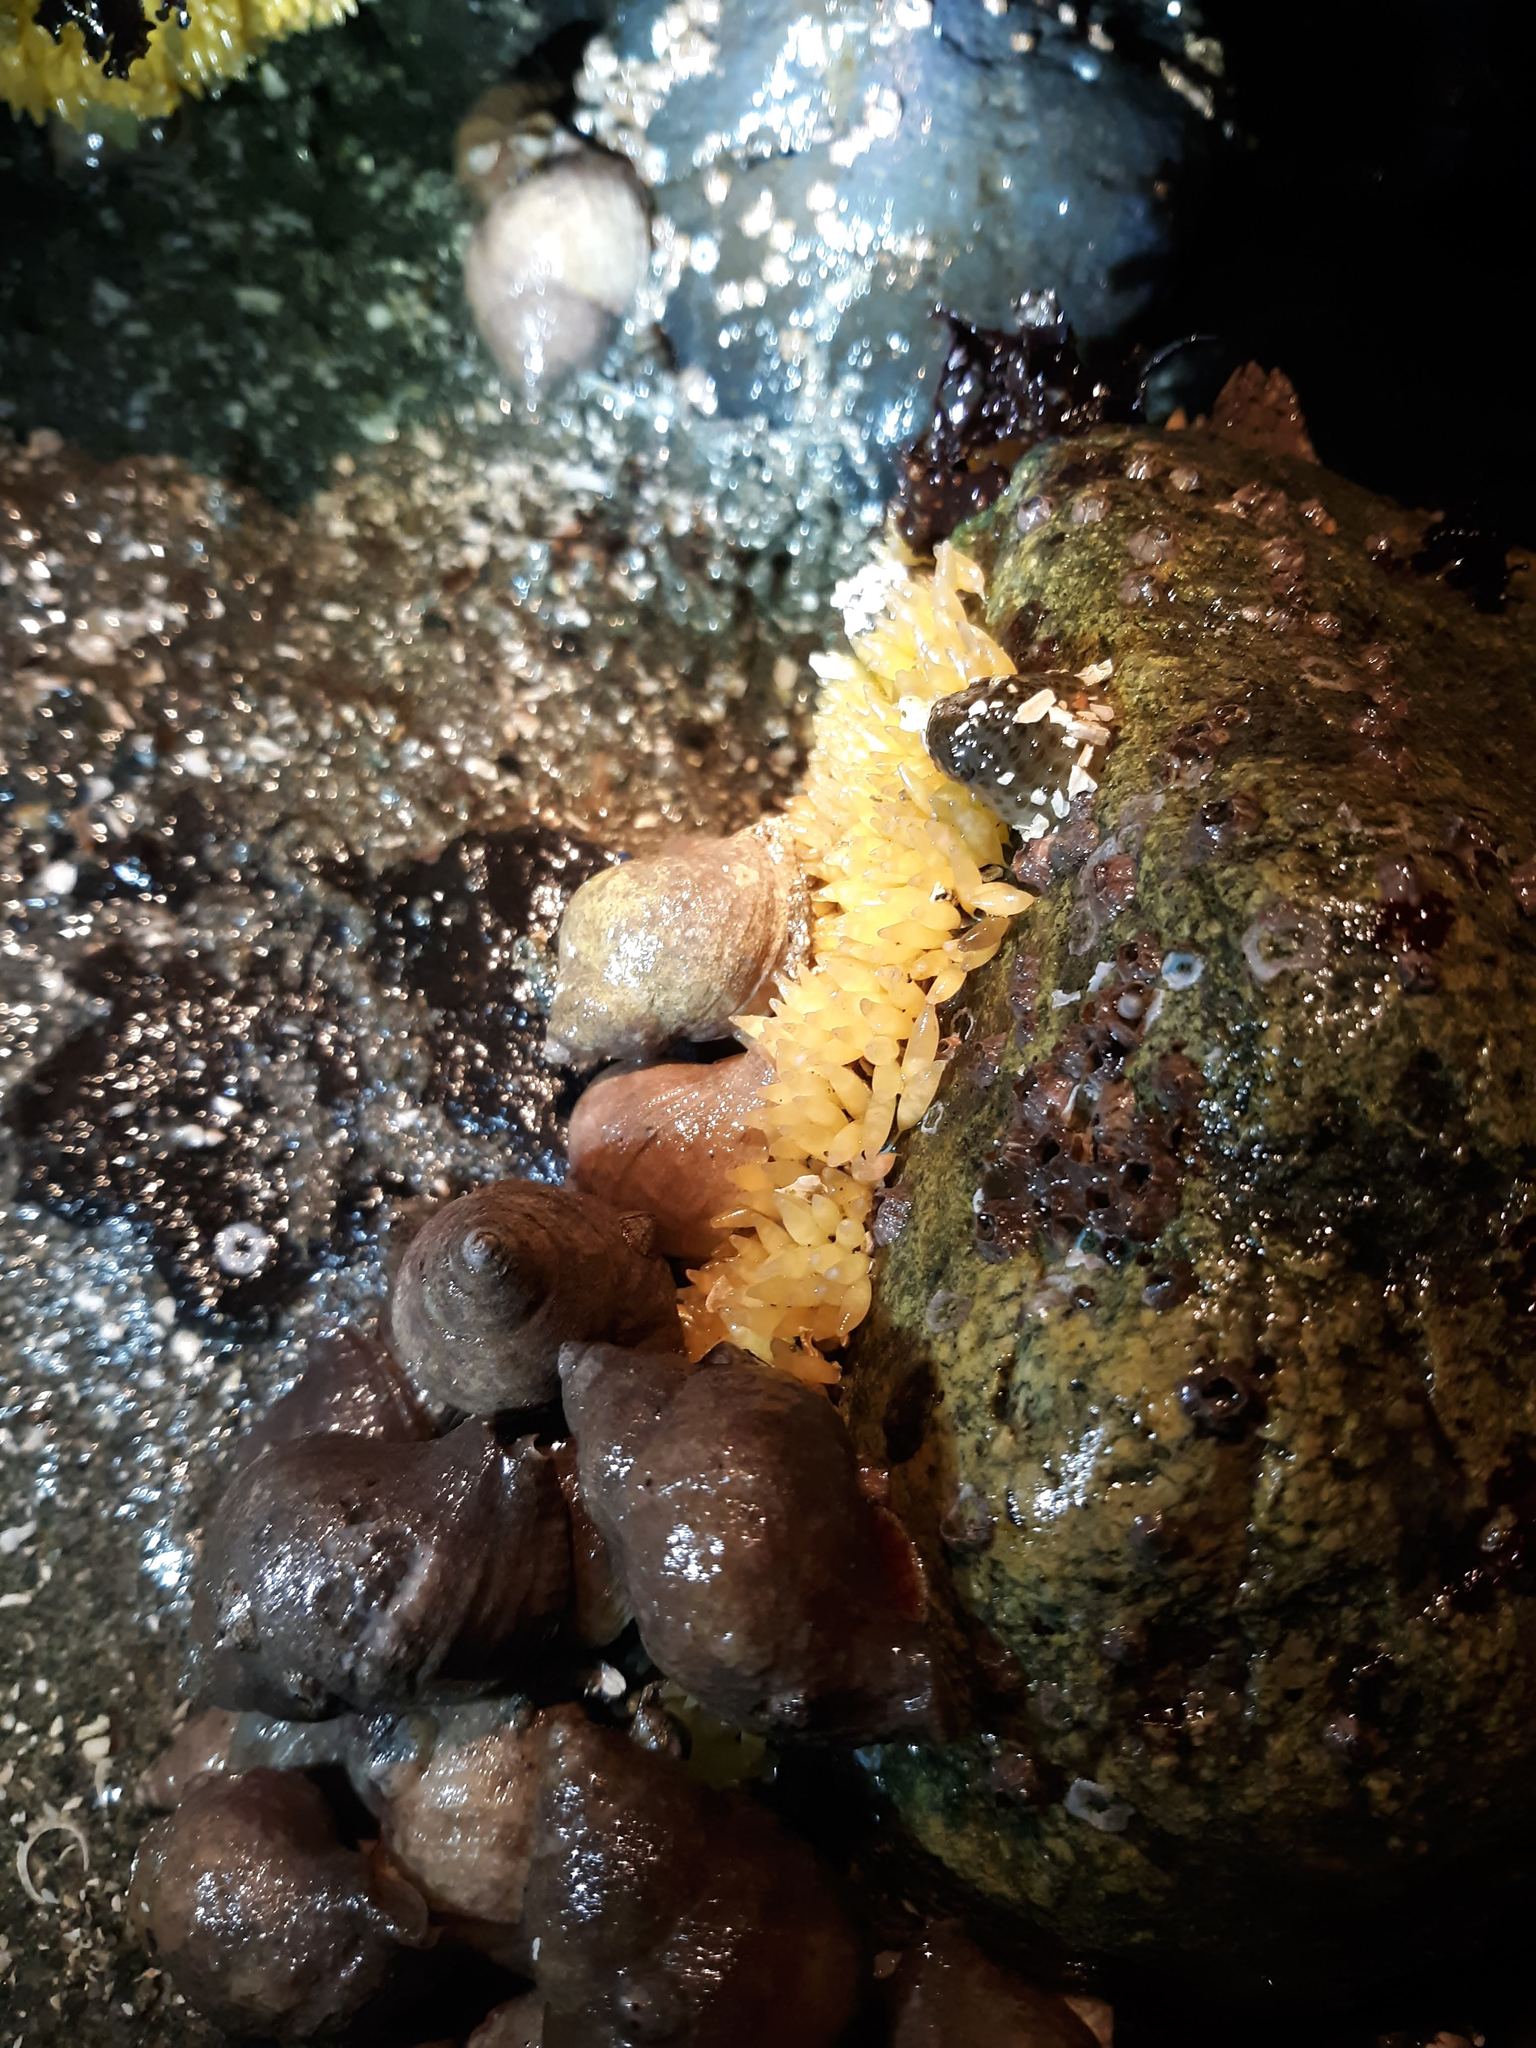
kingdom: Animalia
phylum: Mollusca
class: Gastropoda
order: Neogastropoda
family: Muricidae
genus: Nucella
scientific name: Nucella lamellosa
